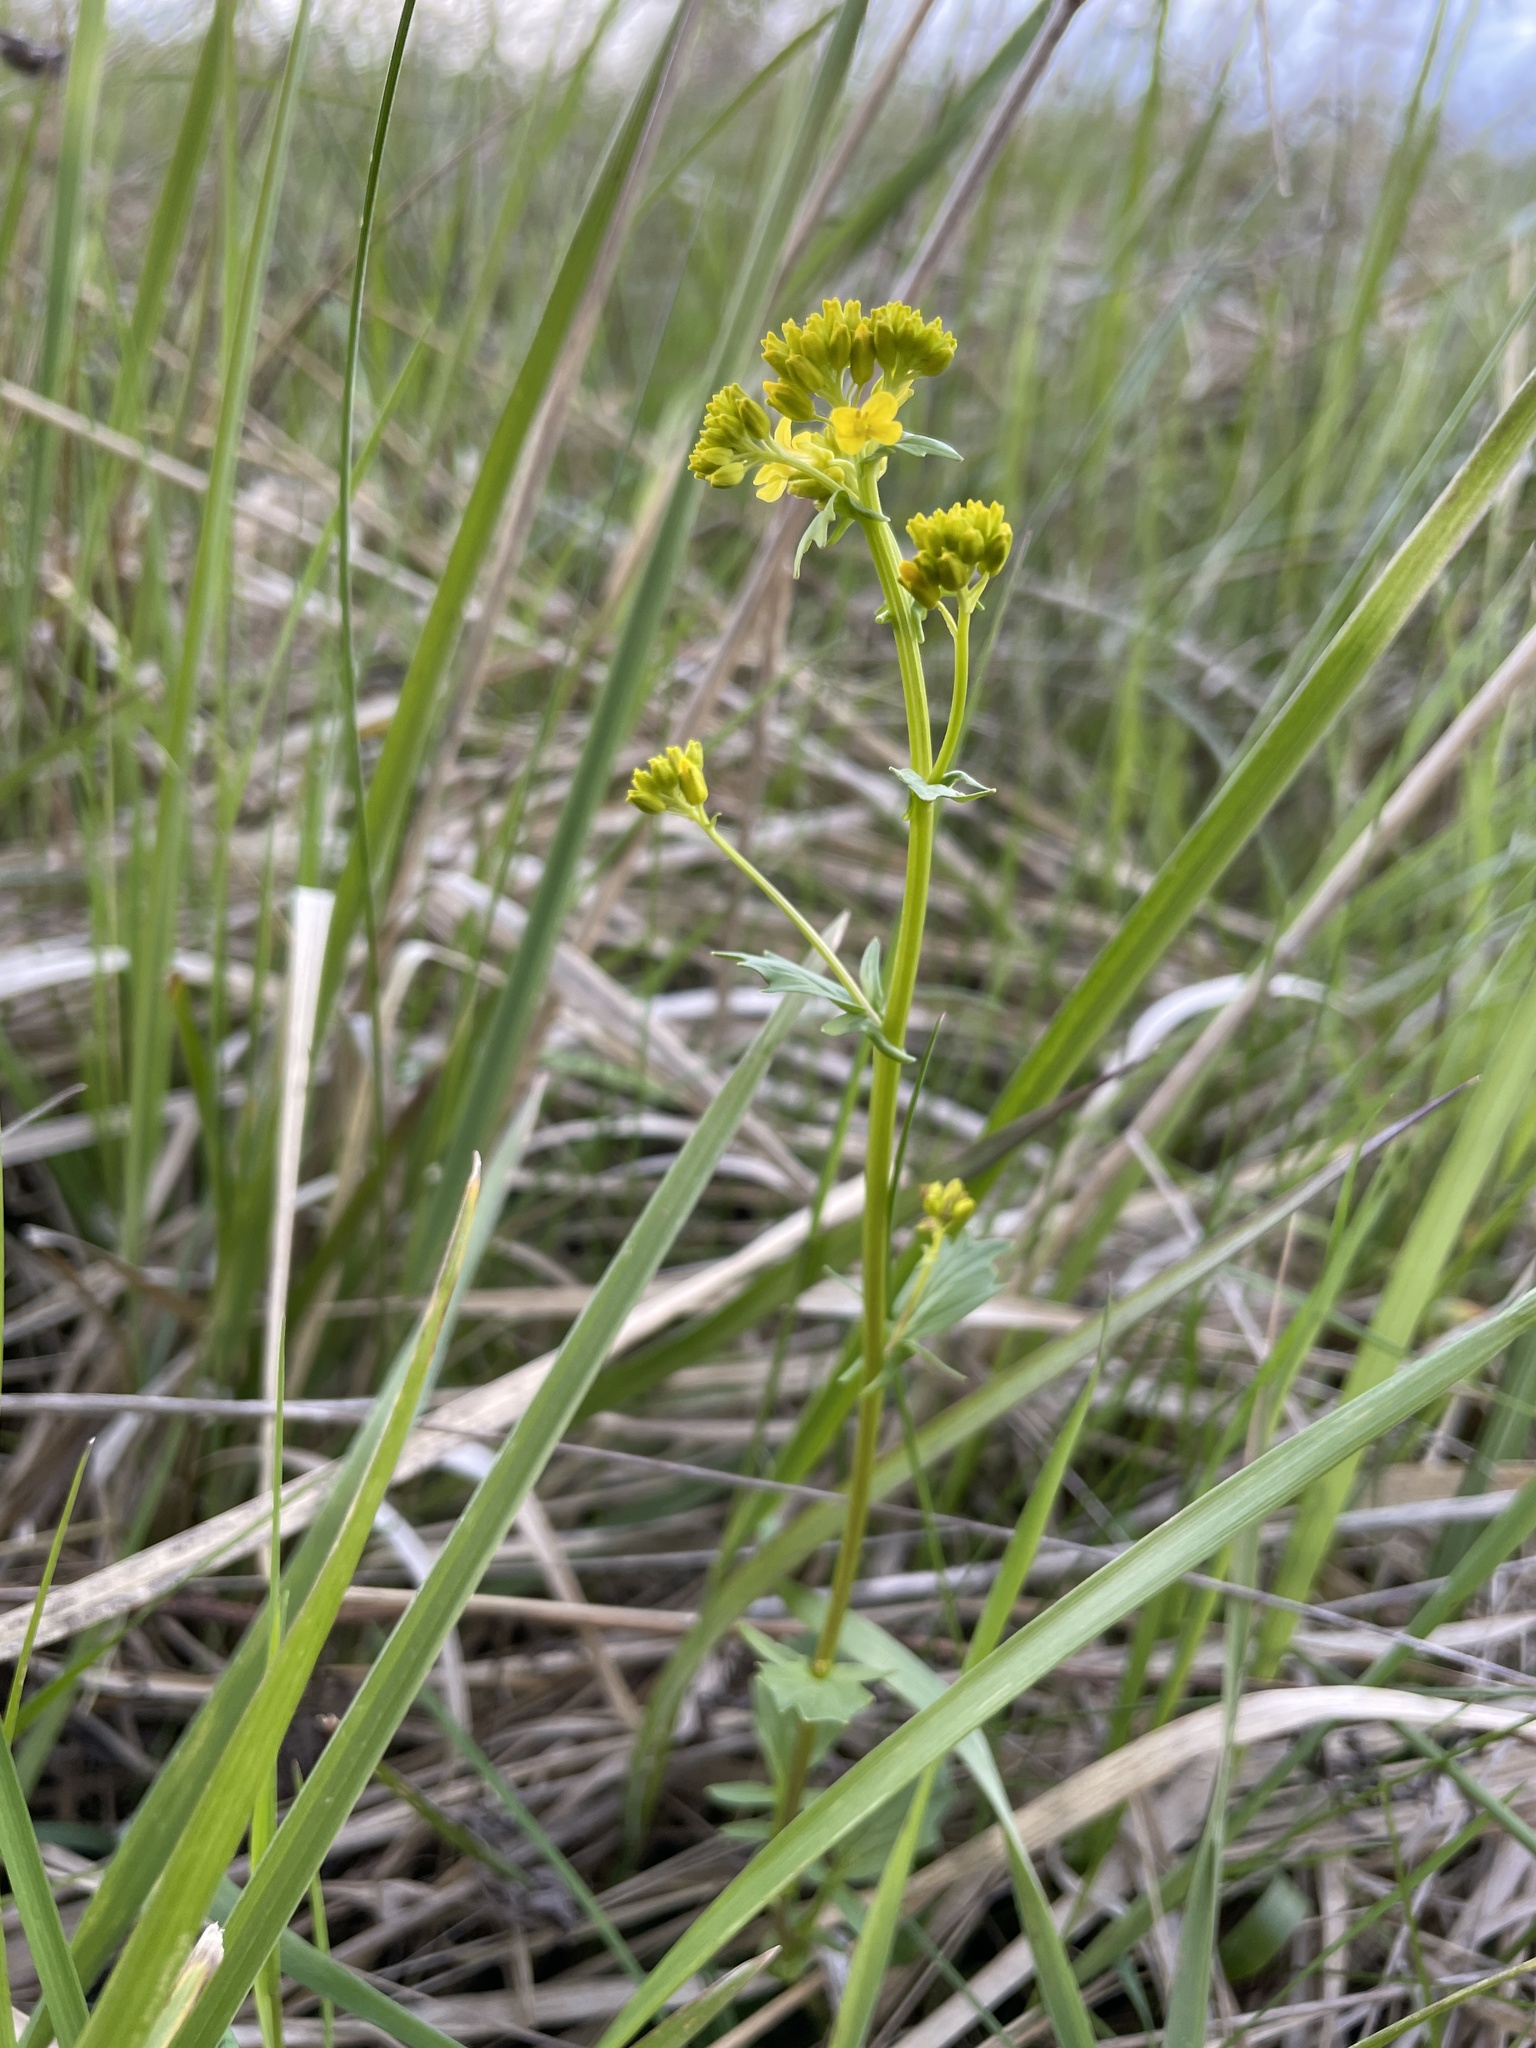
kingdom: Plantae
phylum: Tracheophyta
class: Magnoliopsida
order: Brassicales
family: Brassicaceae
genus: Barbarea
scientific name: Barbarea vulgaris
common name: Cressy-greens
